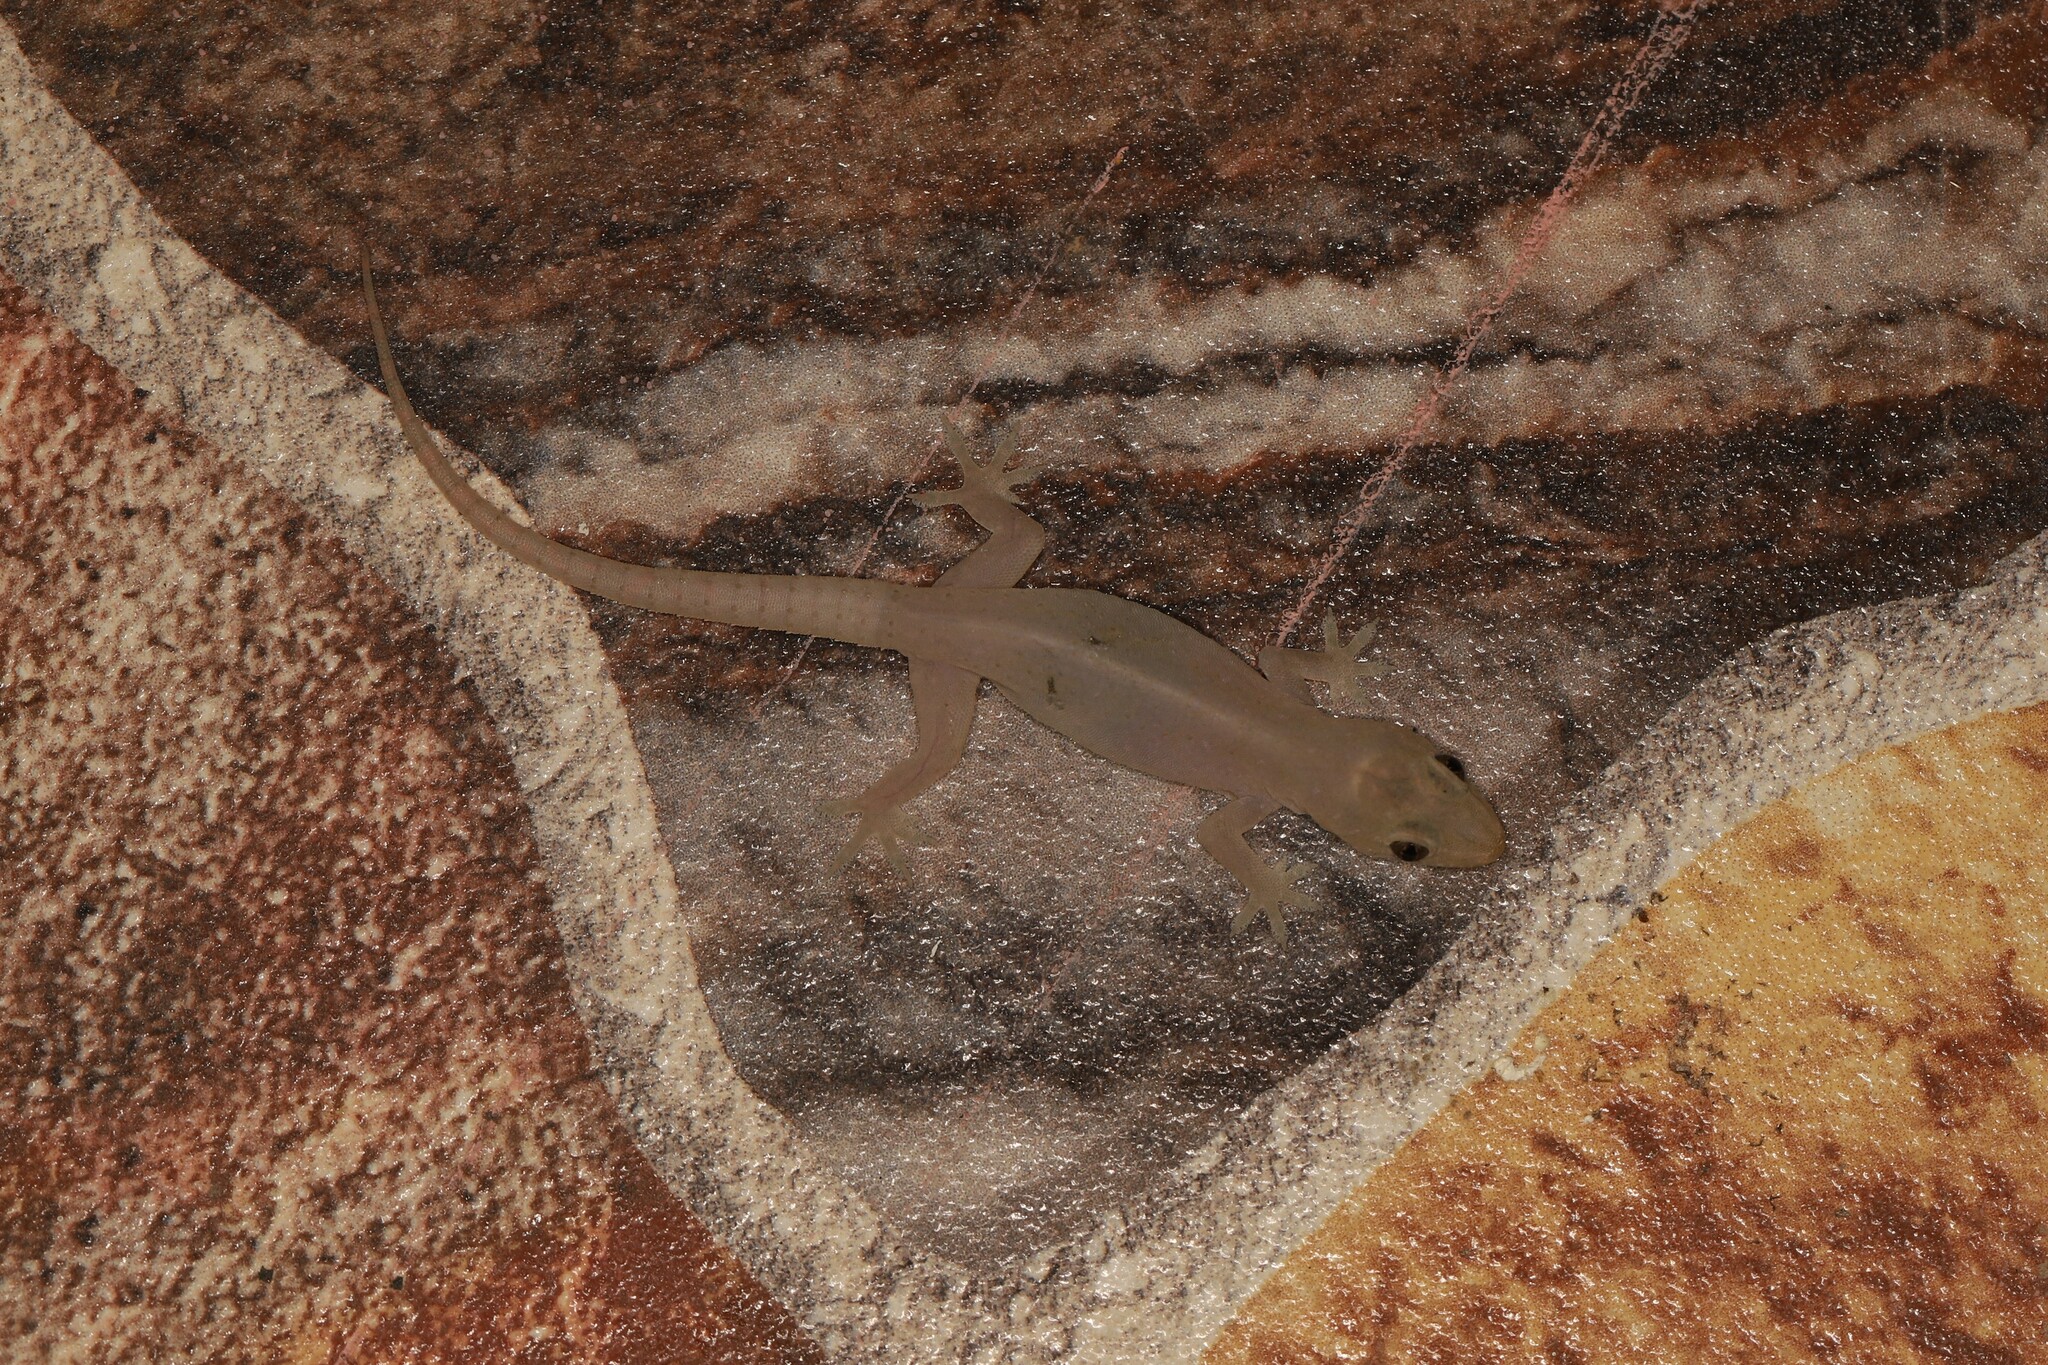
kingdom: Animalia
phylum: Chordata
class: Squamata
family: Gekkonidae
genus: Hemidactylus
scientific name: Hemidactylus frenatus
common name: Common house gecko
